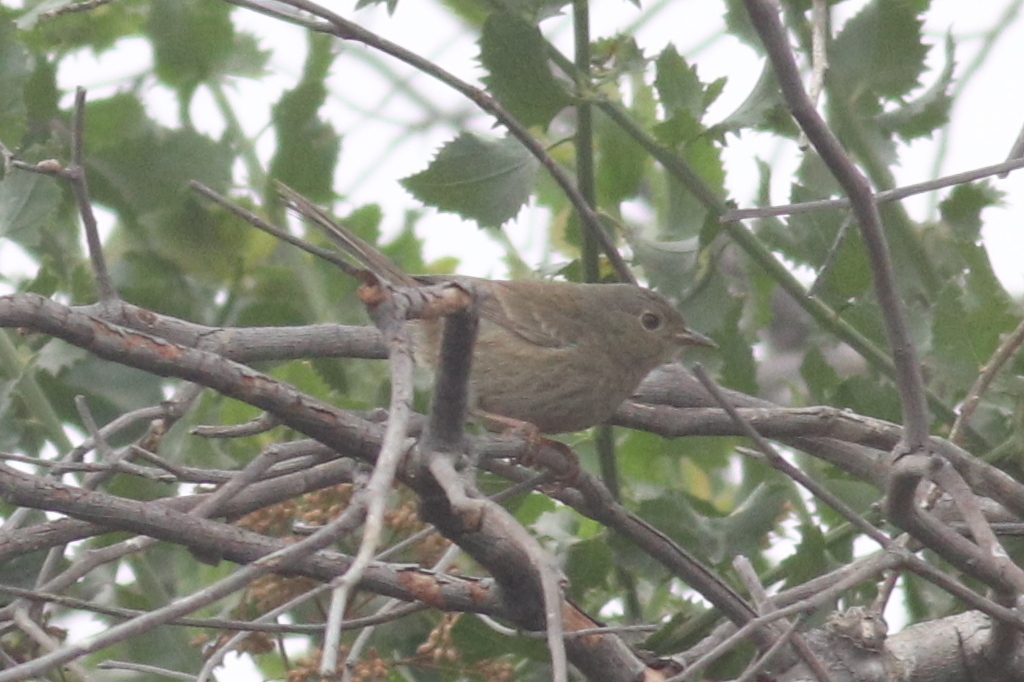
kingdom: Animalia
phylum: Chordata
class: Aves
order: Passeriformes
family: Thraupidae
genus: Xenospingus
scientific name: Xenospingus concolor
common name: Slender-billed finch
